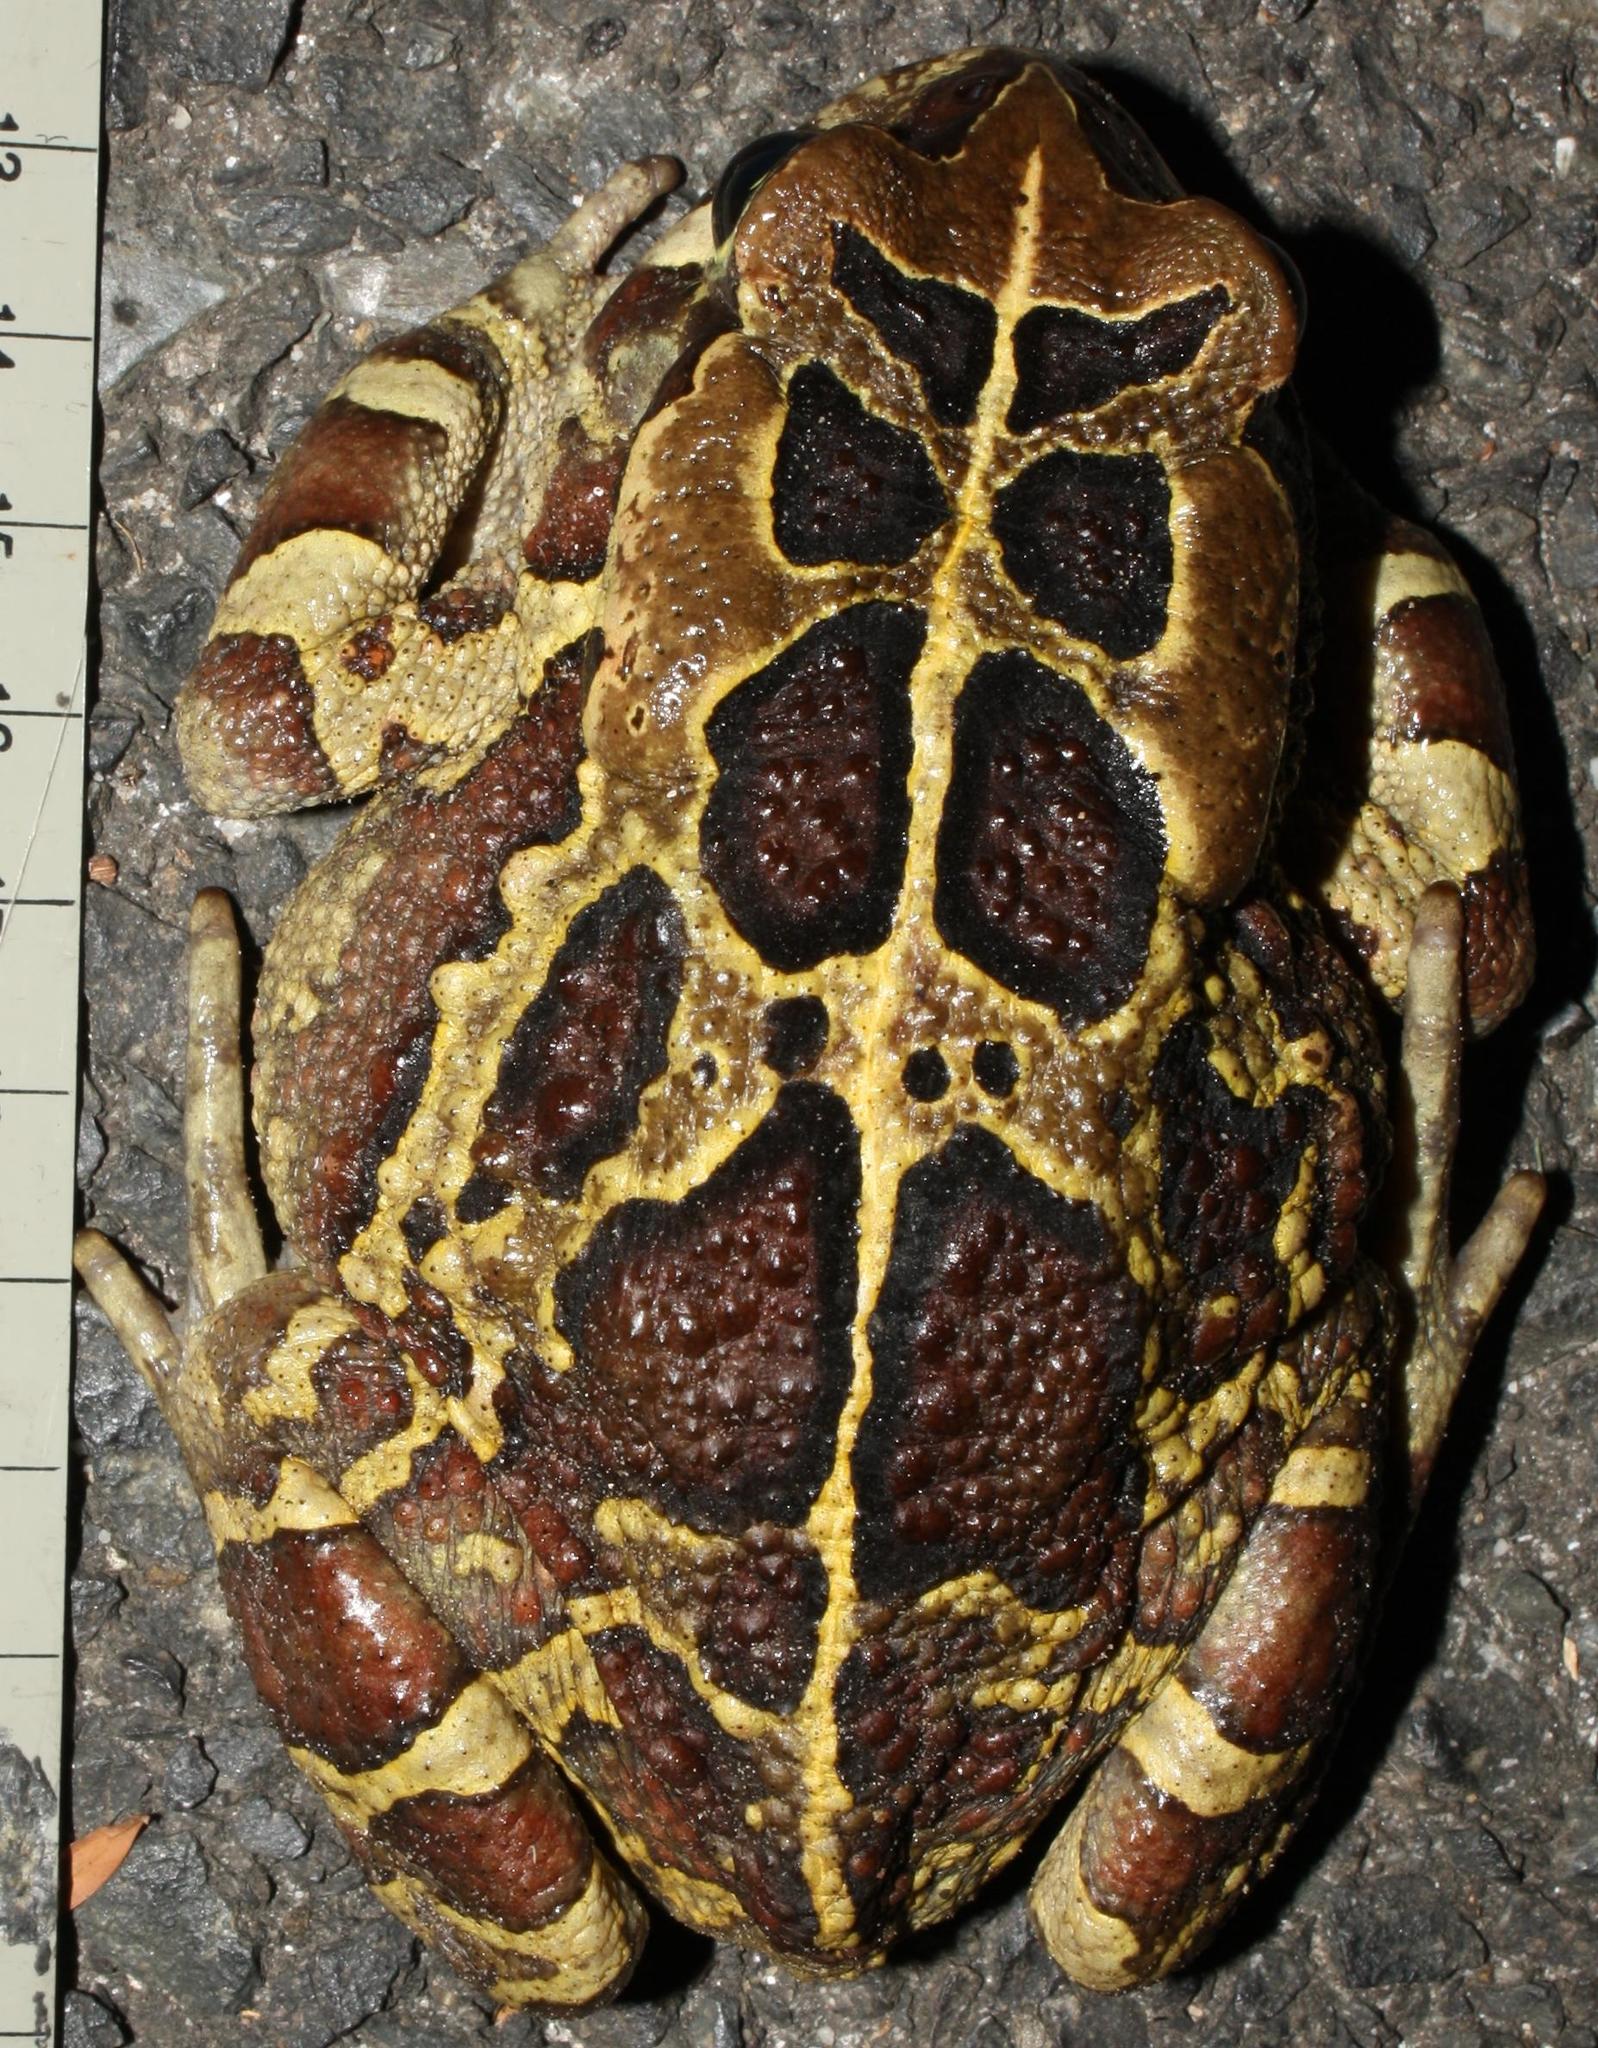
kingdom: Animalia
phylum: Chordata
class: Amphibia
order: Anura
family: Bufonidae
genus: Sclerophrys
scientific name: Sclerophrys pantherina
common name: Panther toad
